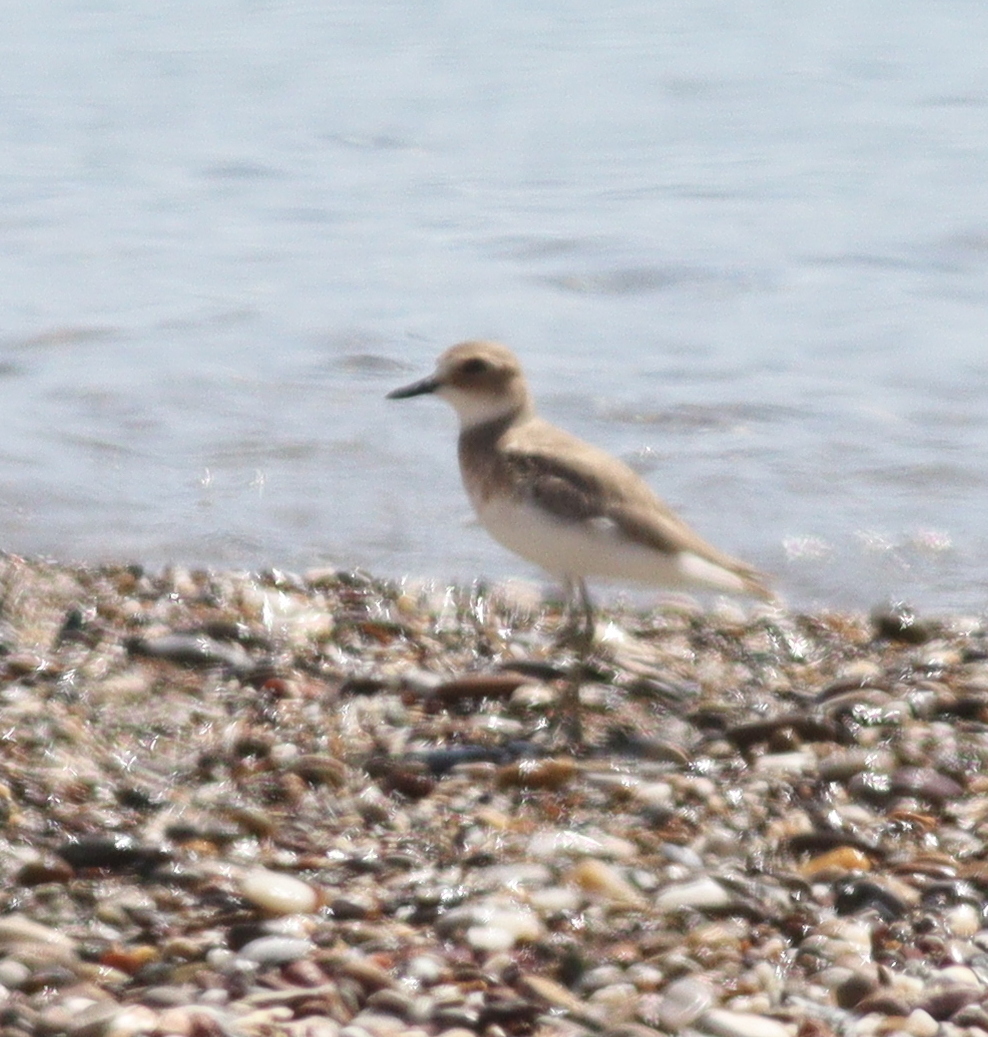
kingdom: Animalia
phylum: Chordata
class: Aves
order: Charadriiformes
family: Charadriidae
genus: Charadrius
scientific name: Charadrius leschenaultii
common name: Greater sand plover
